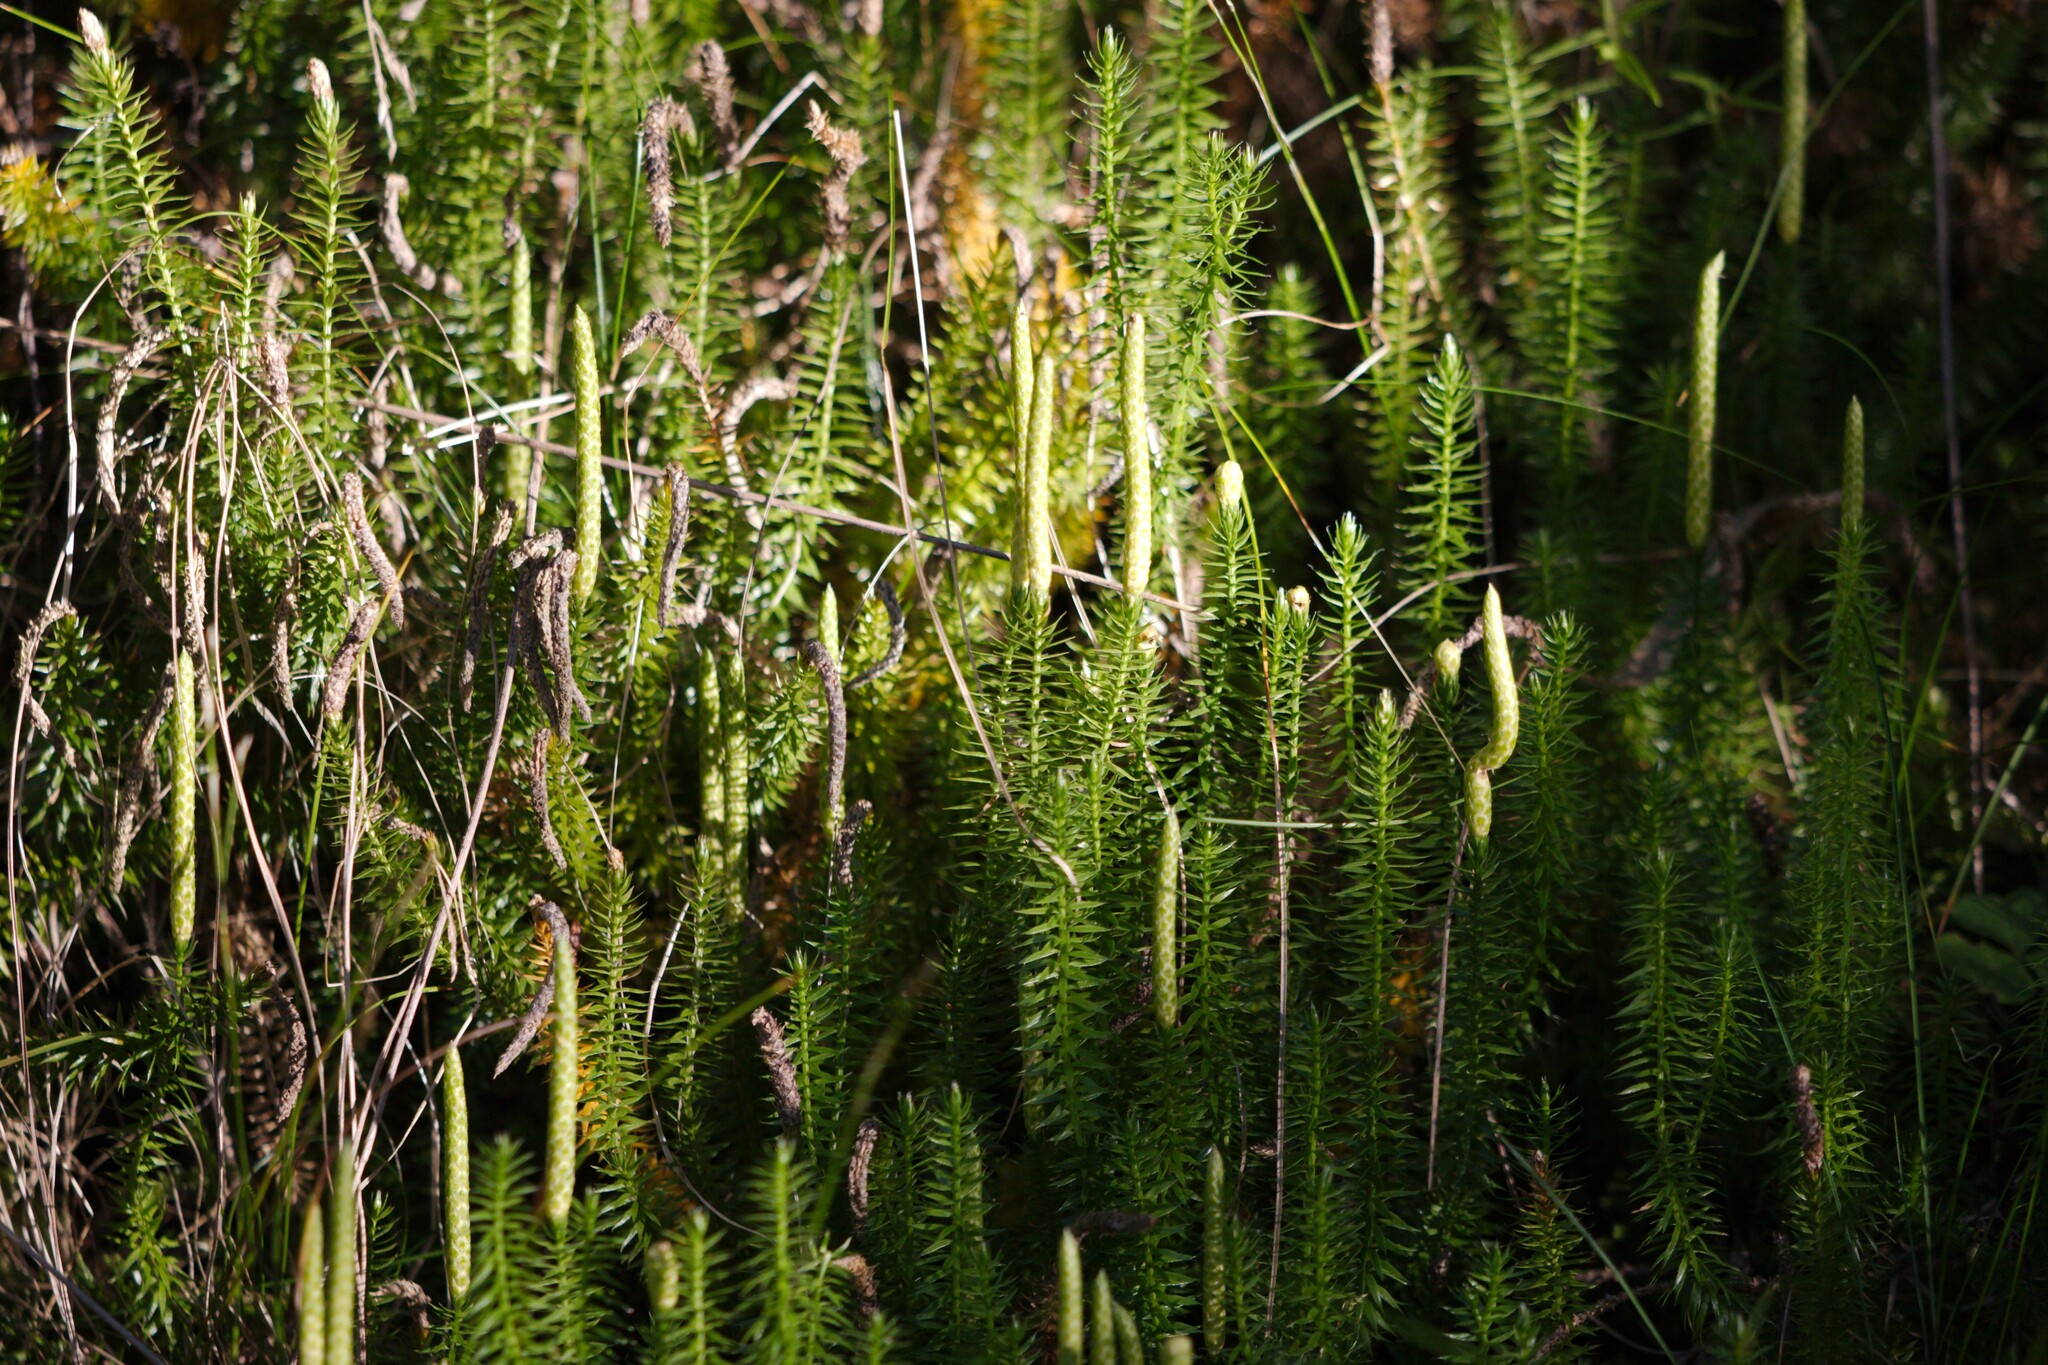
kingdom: Plantae
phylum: Tracheophyta
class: Lycopodiopsida
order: Lycopodiales
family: Lycopodiaceae
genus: Spinulum
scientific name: Spinulum annotinum
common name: Interrupted club-moss
